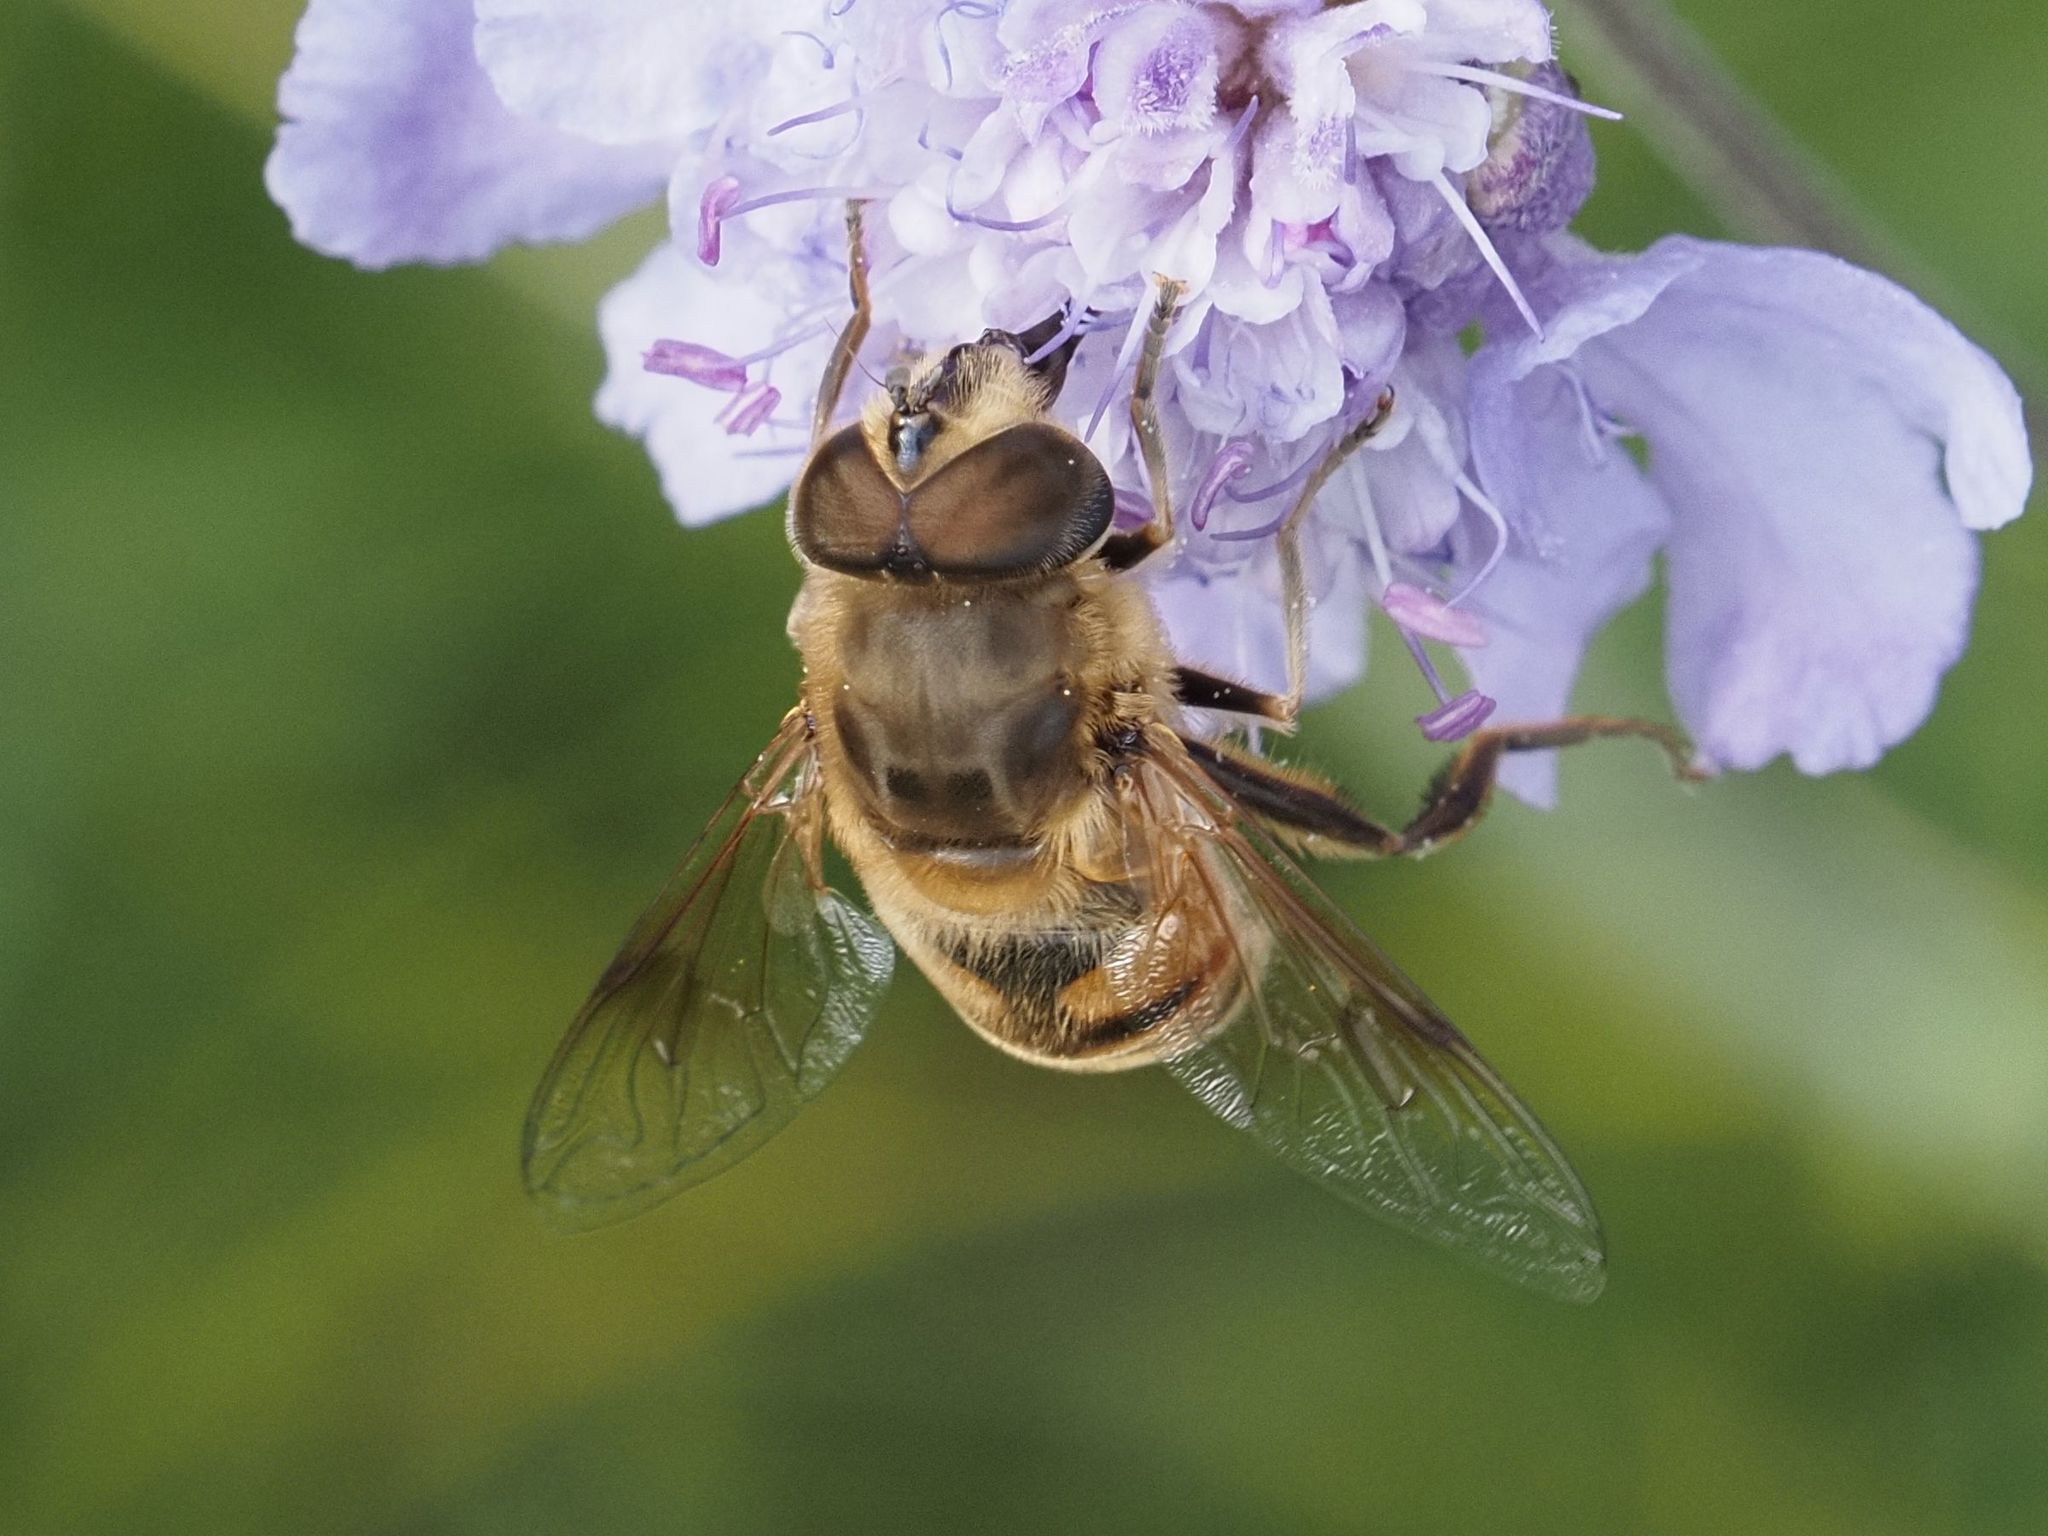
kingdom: Animalia
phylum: Arthropoda
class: Insecta
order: Diptera
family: Syrphidae
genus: Eristalis
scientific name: Eristalis tenax
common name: Drone fly
